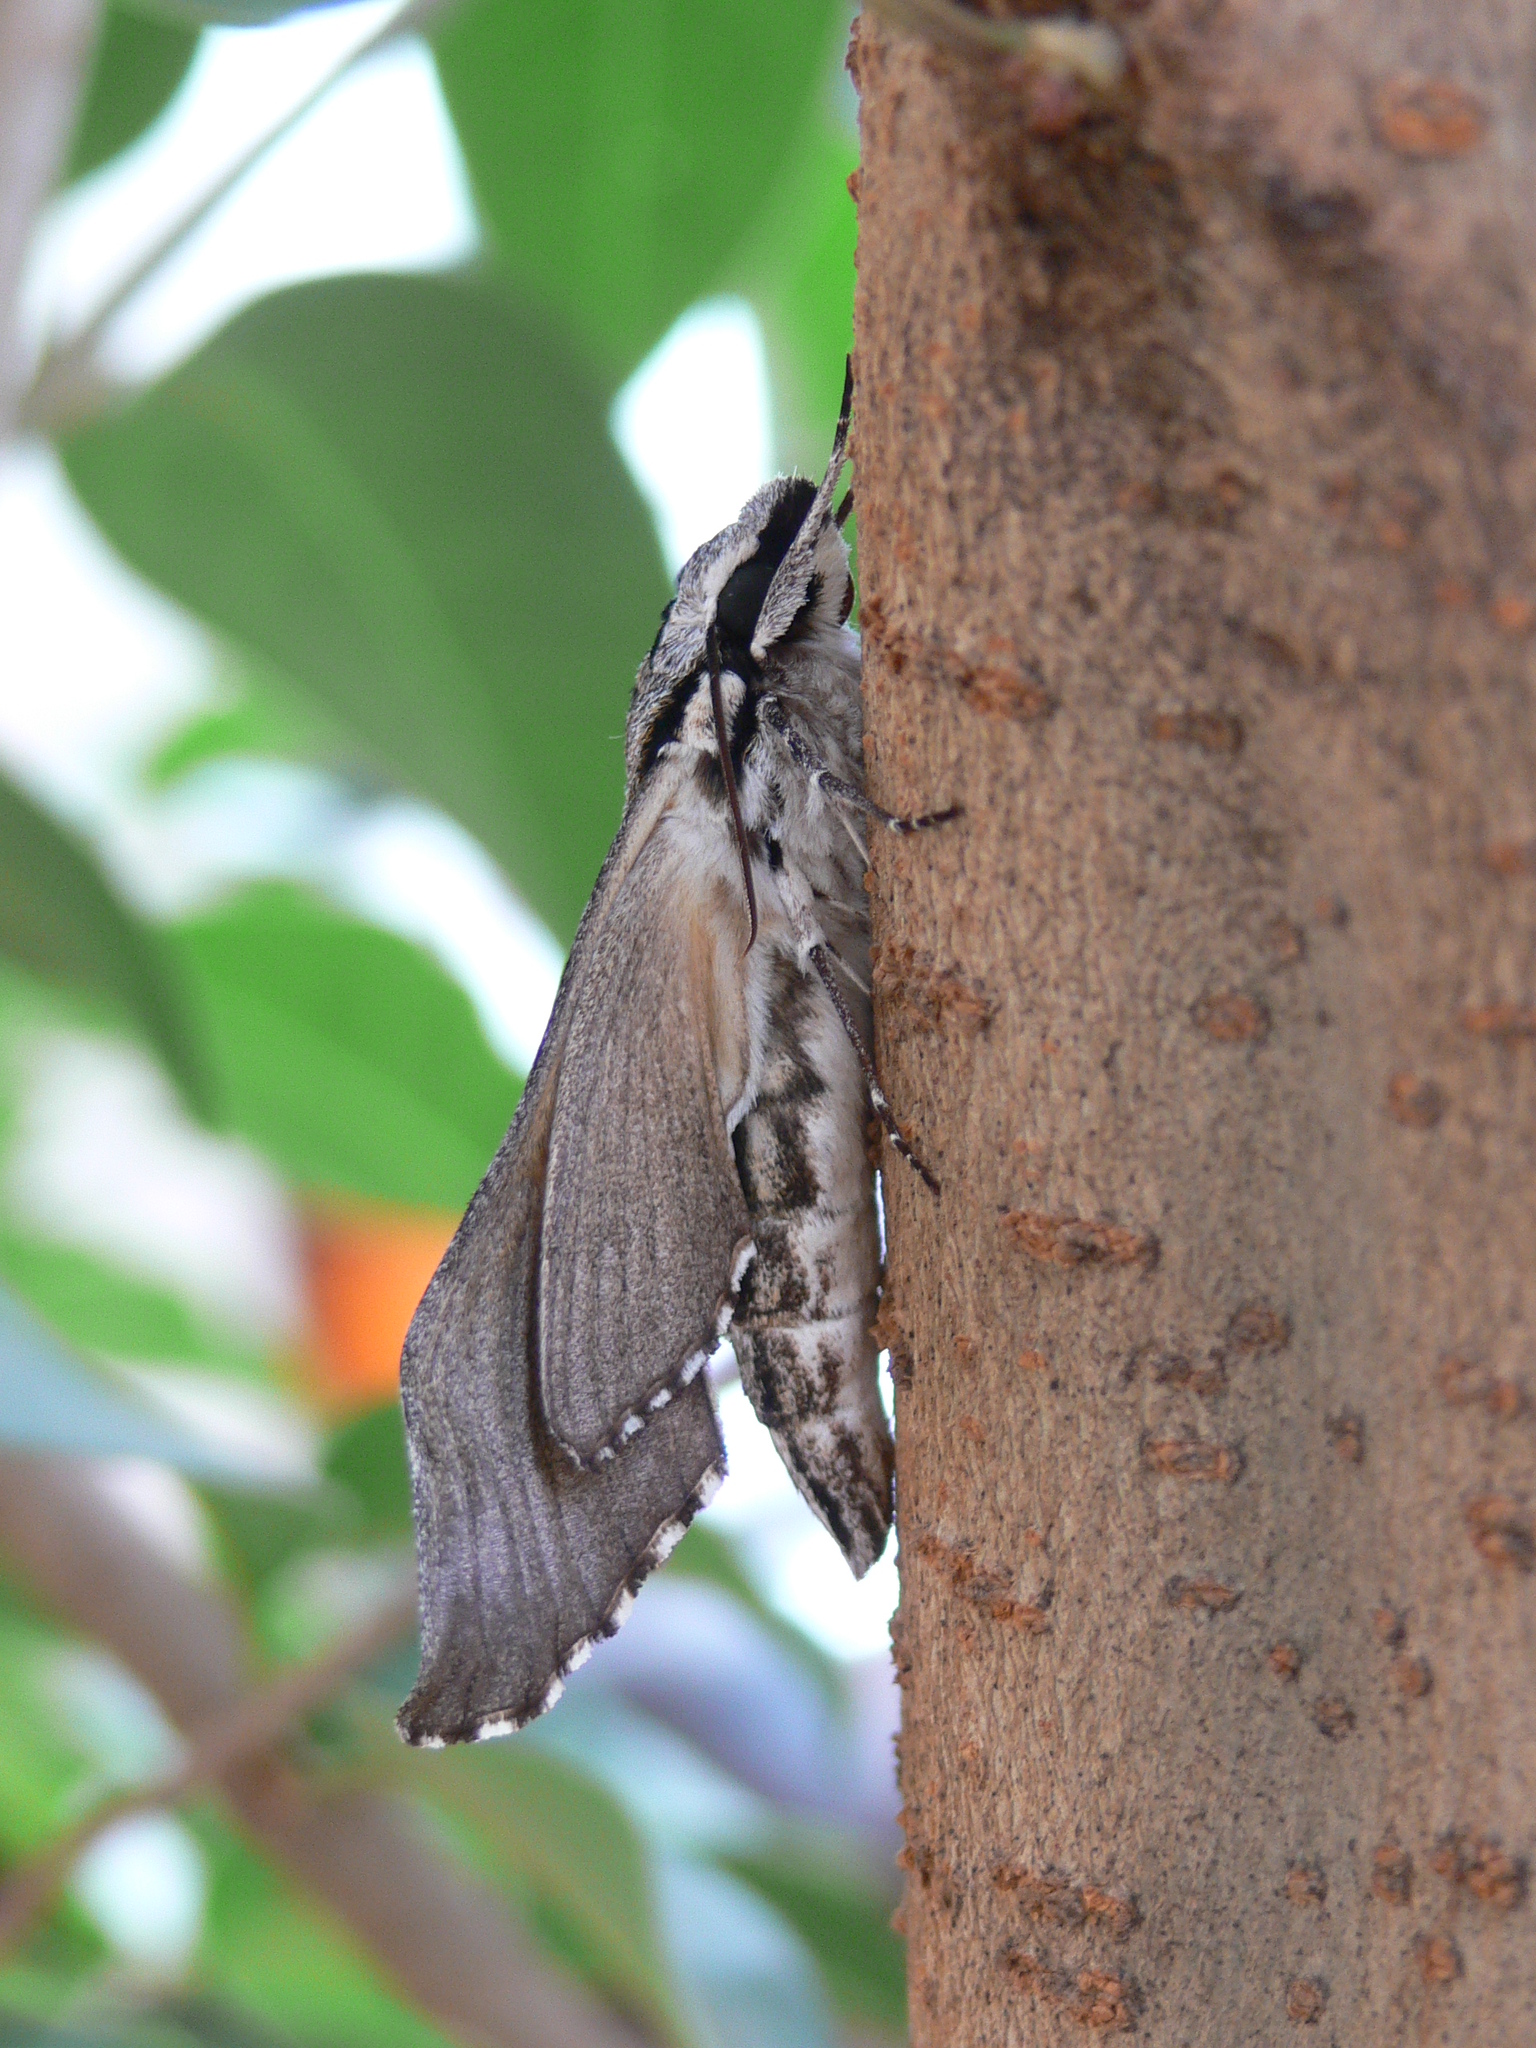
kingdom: Animalia
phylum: Arthropoda
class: Insecta
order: Lepidoptera
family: Sphingidae
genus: Panogena
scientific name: Panogena jasmini
